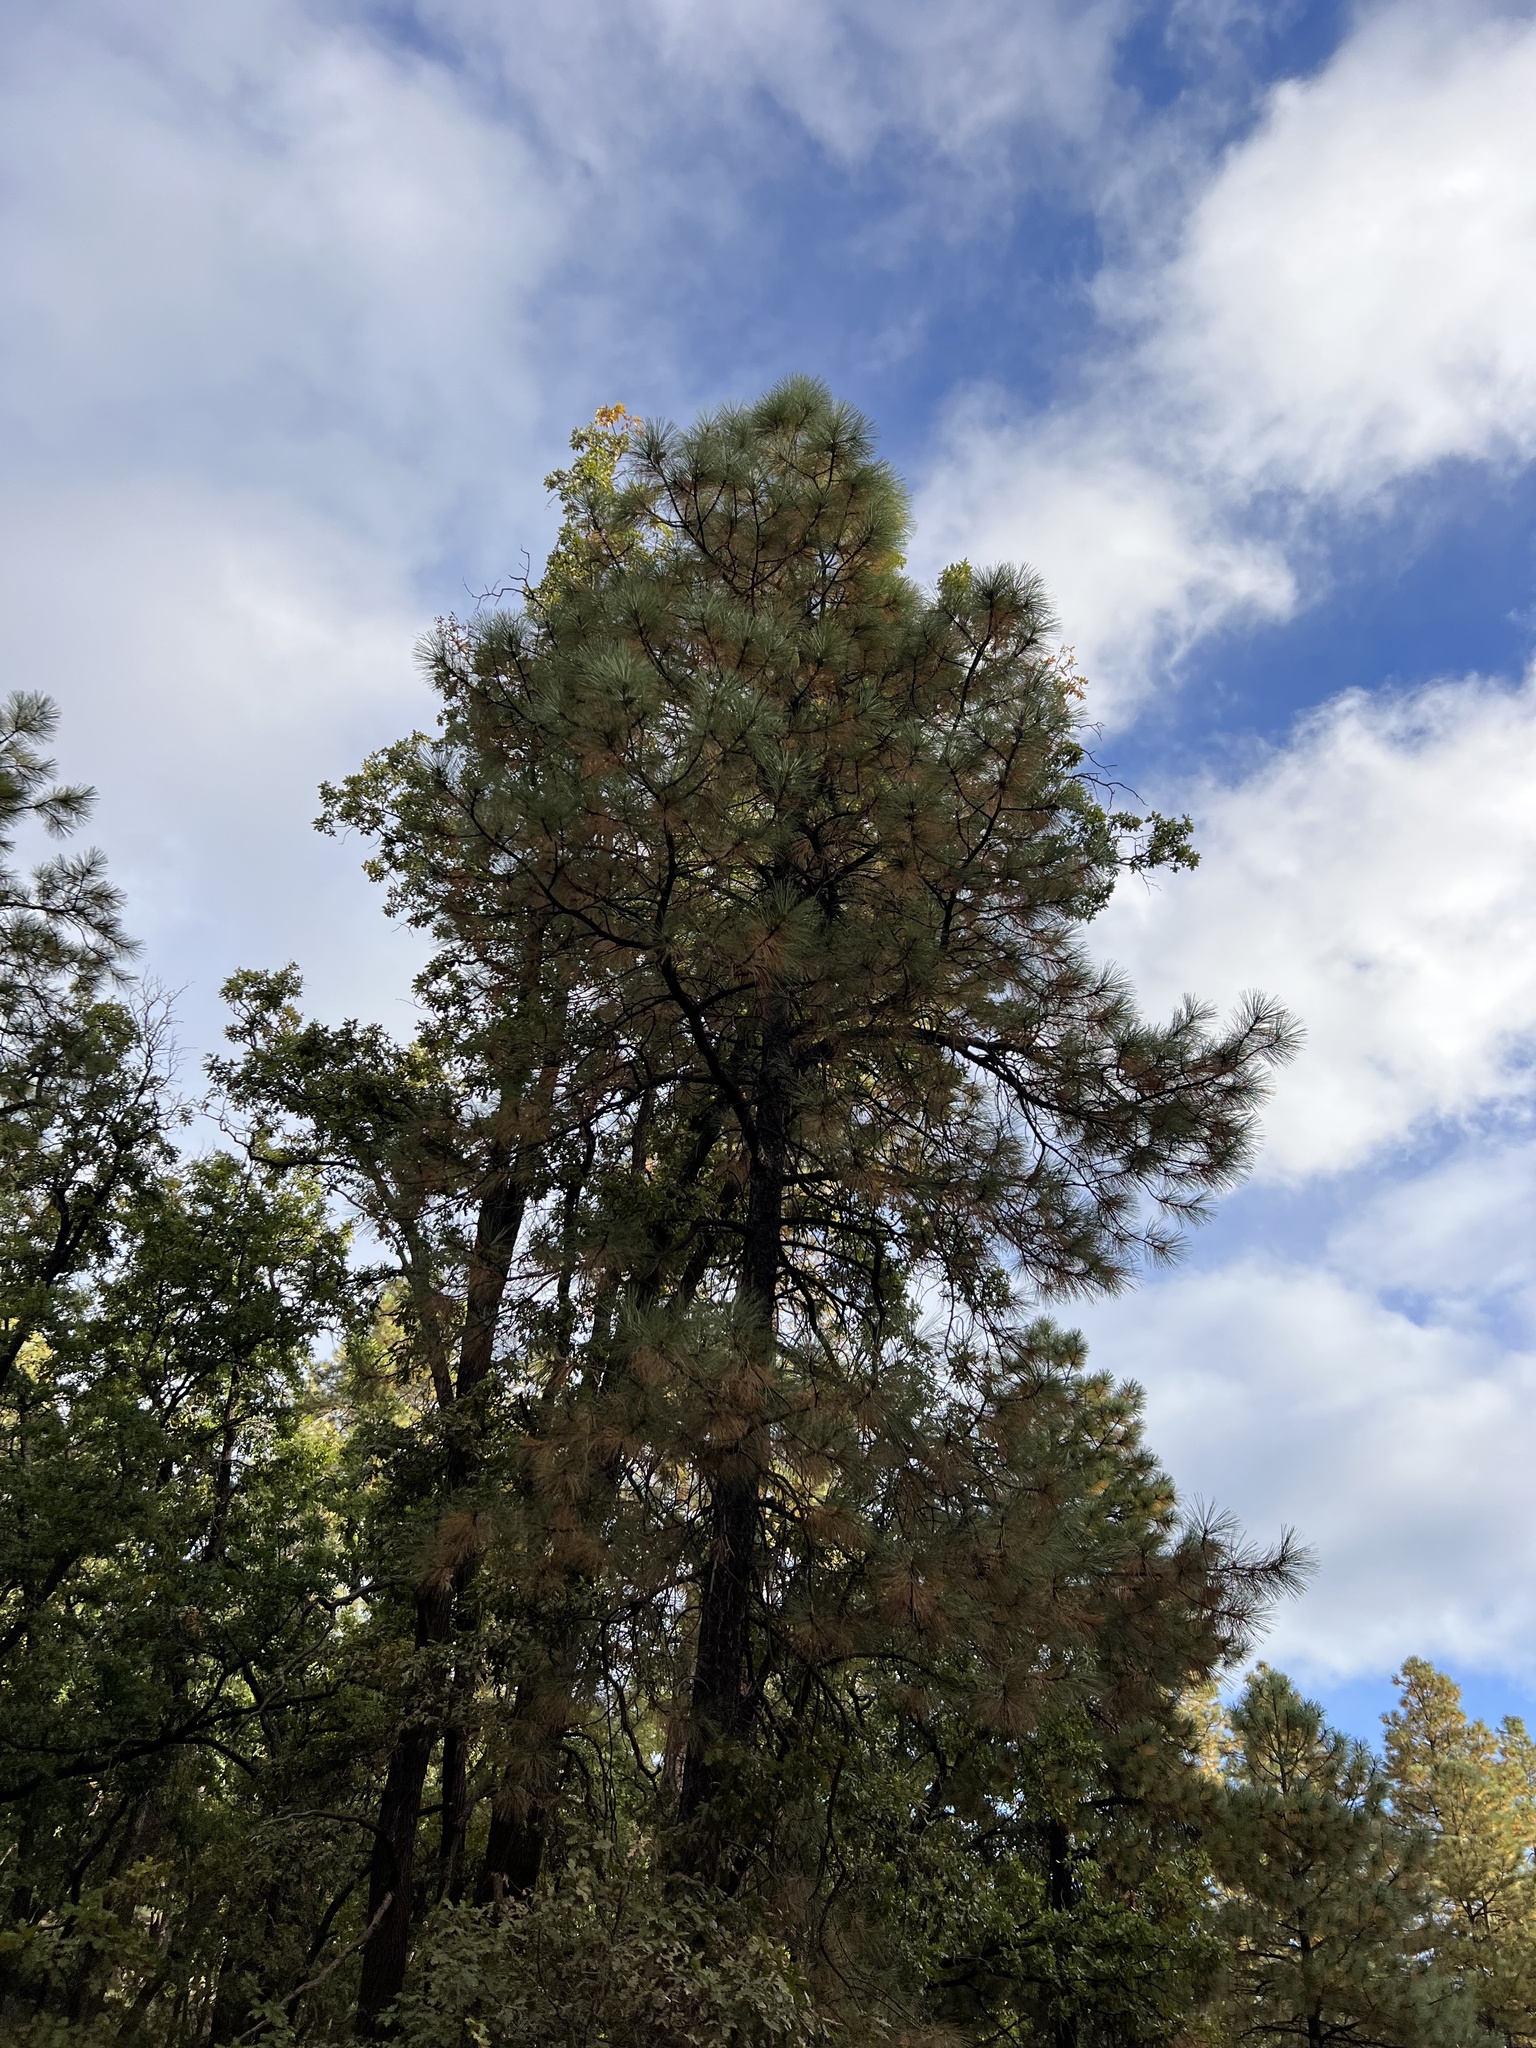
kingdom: Plantae
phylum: Tracheophyta
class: Pinopsida
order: Pinales
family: Pinaceae
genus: Pinus
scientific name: Pinus ponderosa
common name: Western yellow-pine
